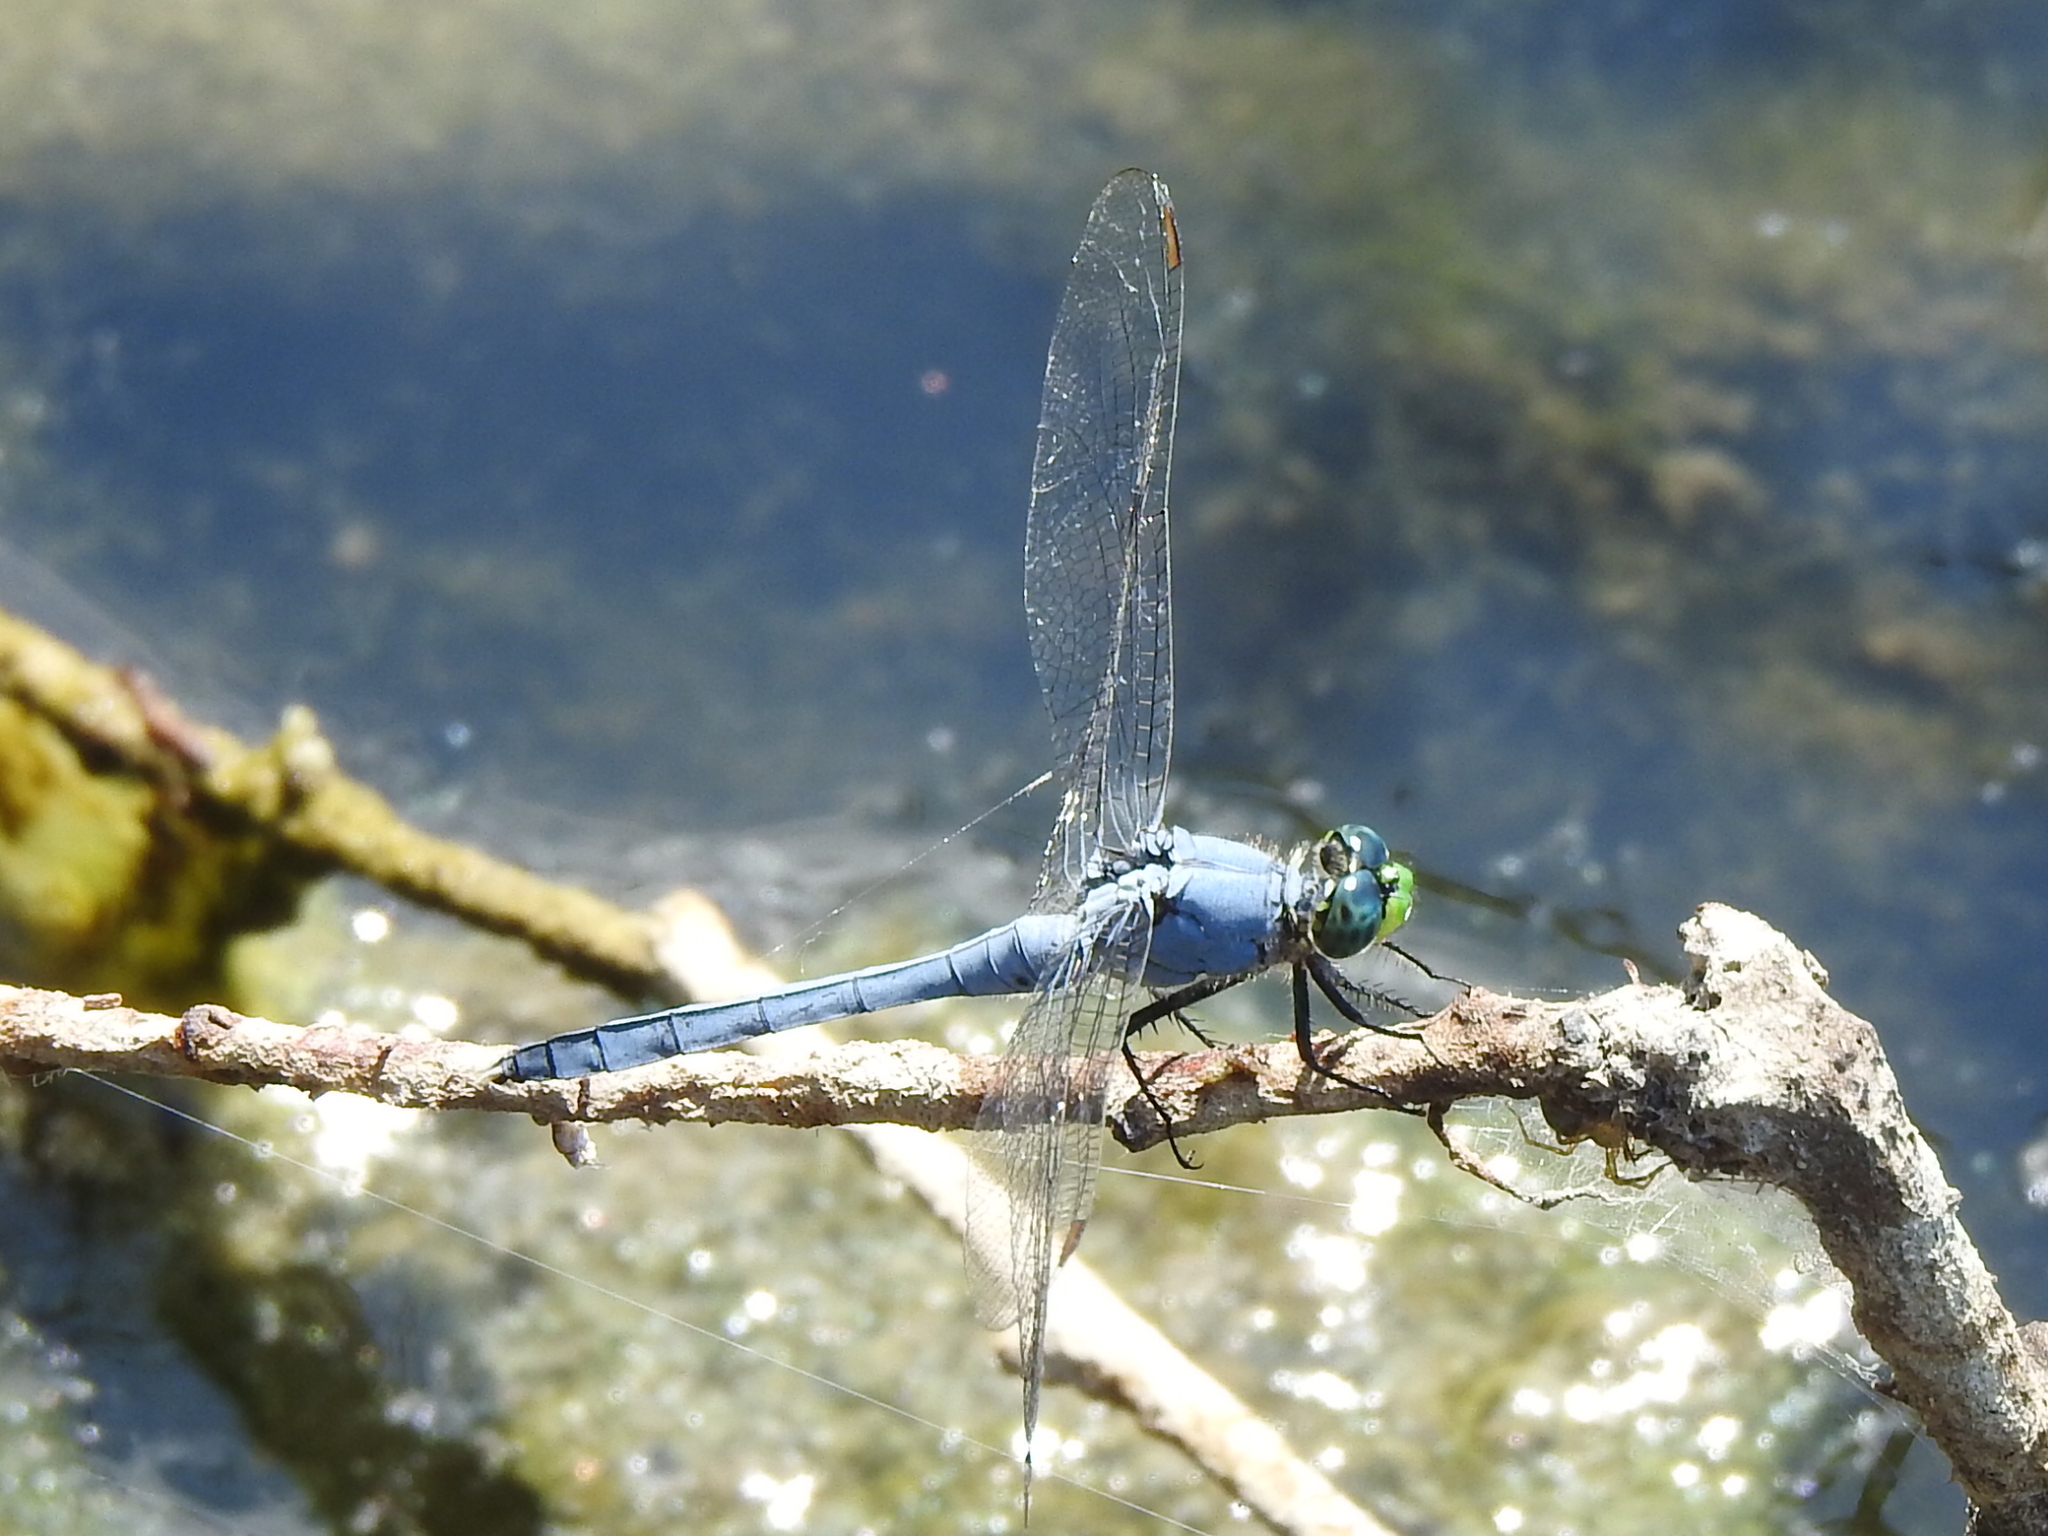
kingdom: Animalia
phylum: Arthropoda
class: Insecta
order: Odonata
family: Libellulidae
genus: Erythemis
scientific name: Erythemis simplicicollis
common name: Eastern pondhawk
